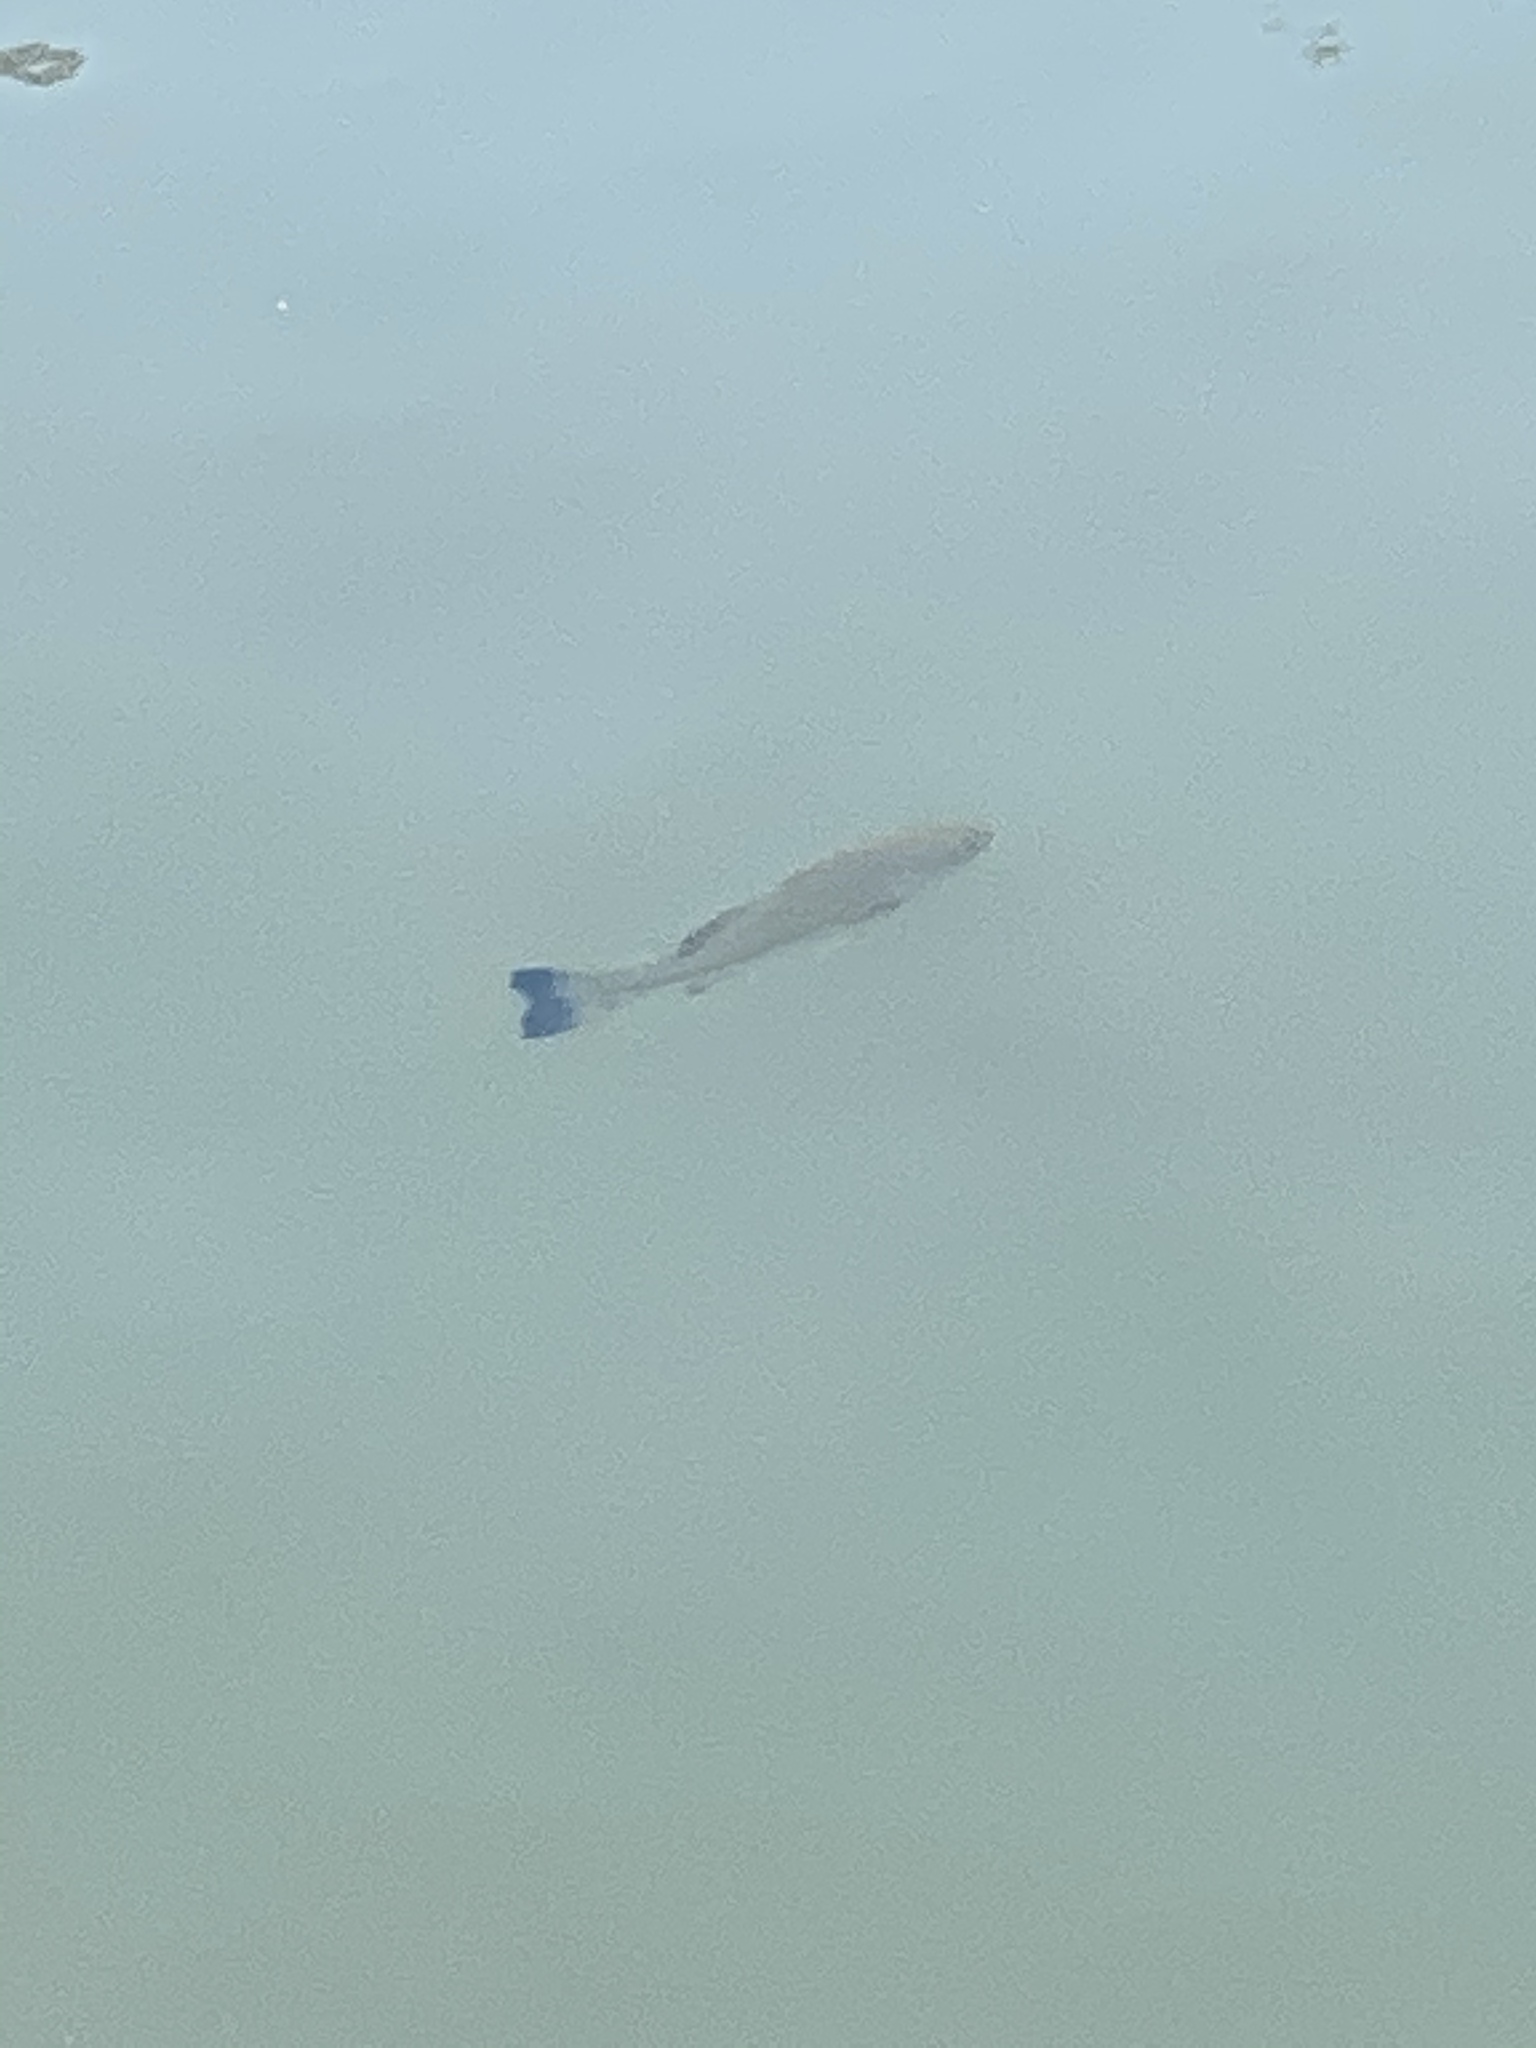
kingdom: Animalia
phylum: Chordata
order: Perciformes
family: Centrarchidae
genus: Micropterus
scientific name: Micropterus
